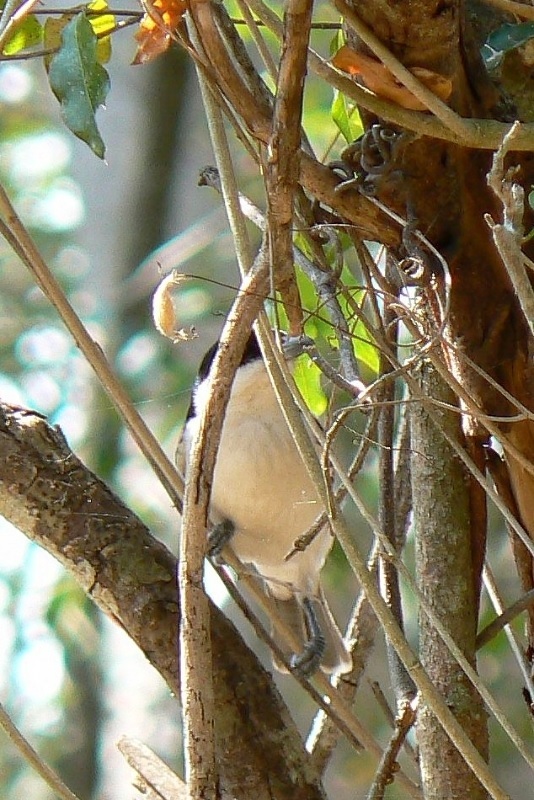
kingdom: Animalia
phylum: Chordata
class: Aves
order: Passeriformes
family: Malaconotidae
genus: Dryoscopus
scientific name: Dryoscopus cubla
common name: Black-backed puffback
